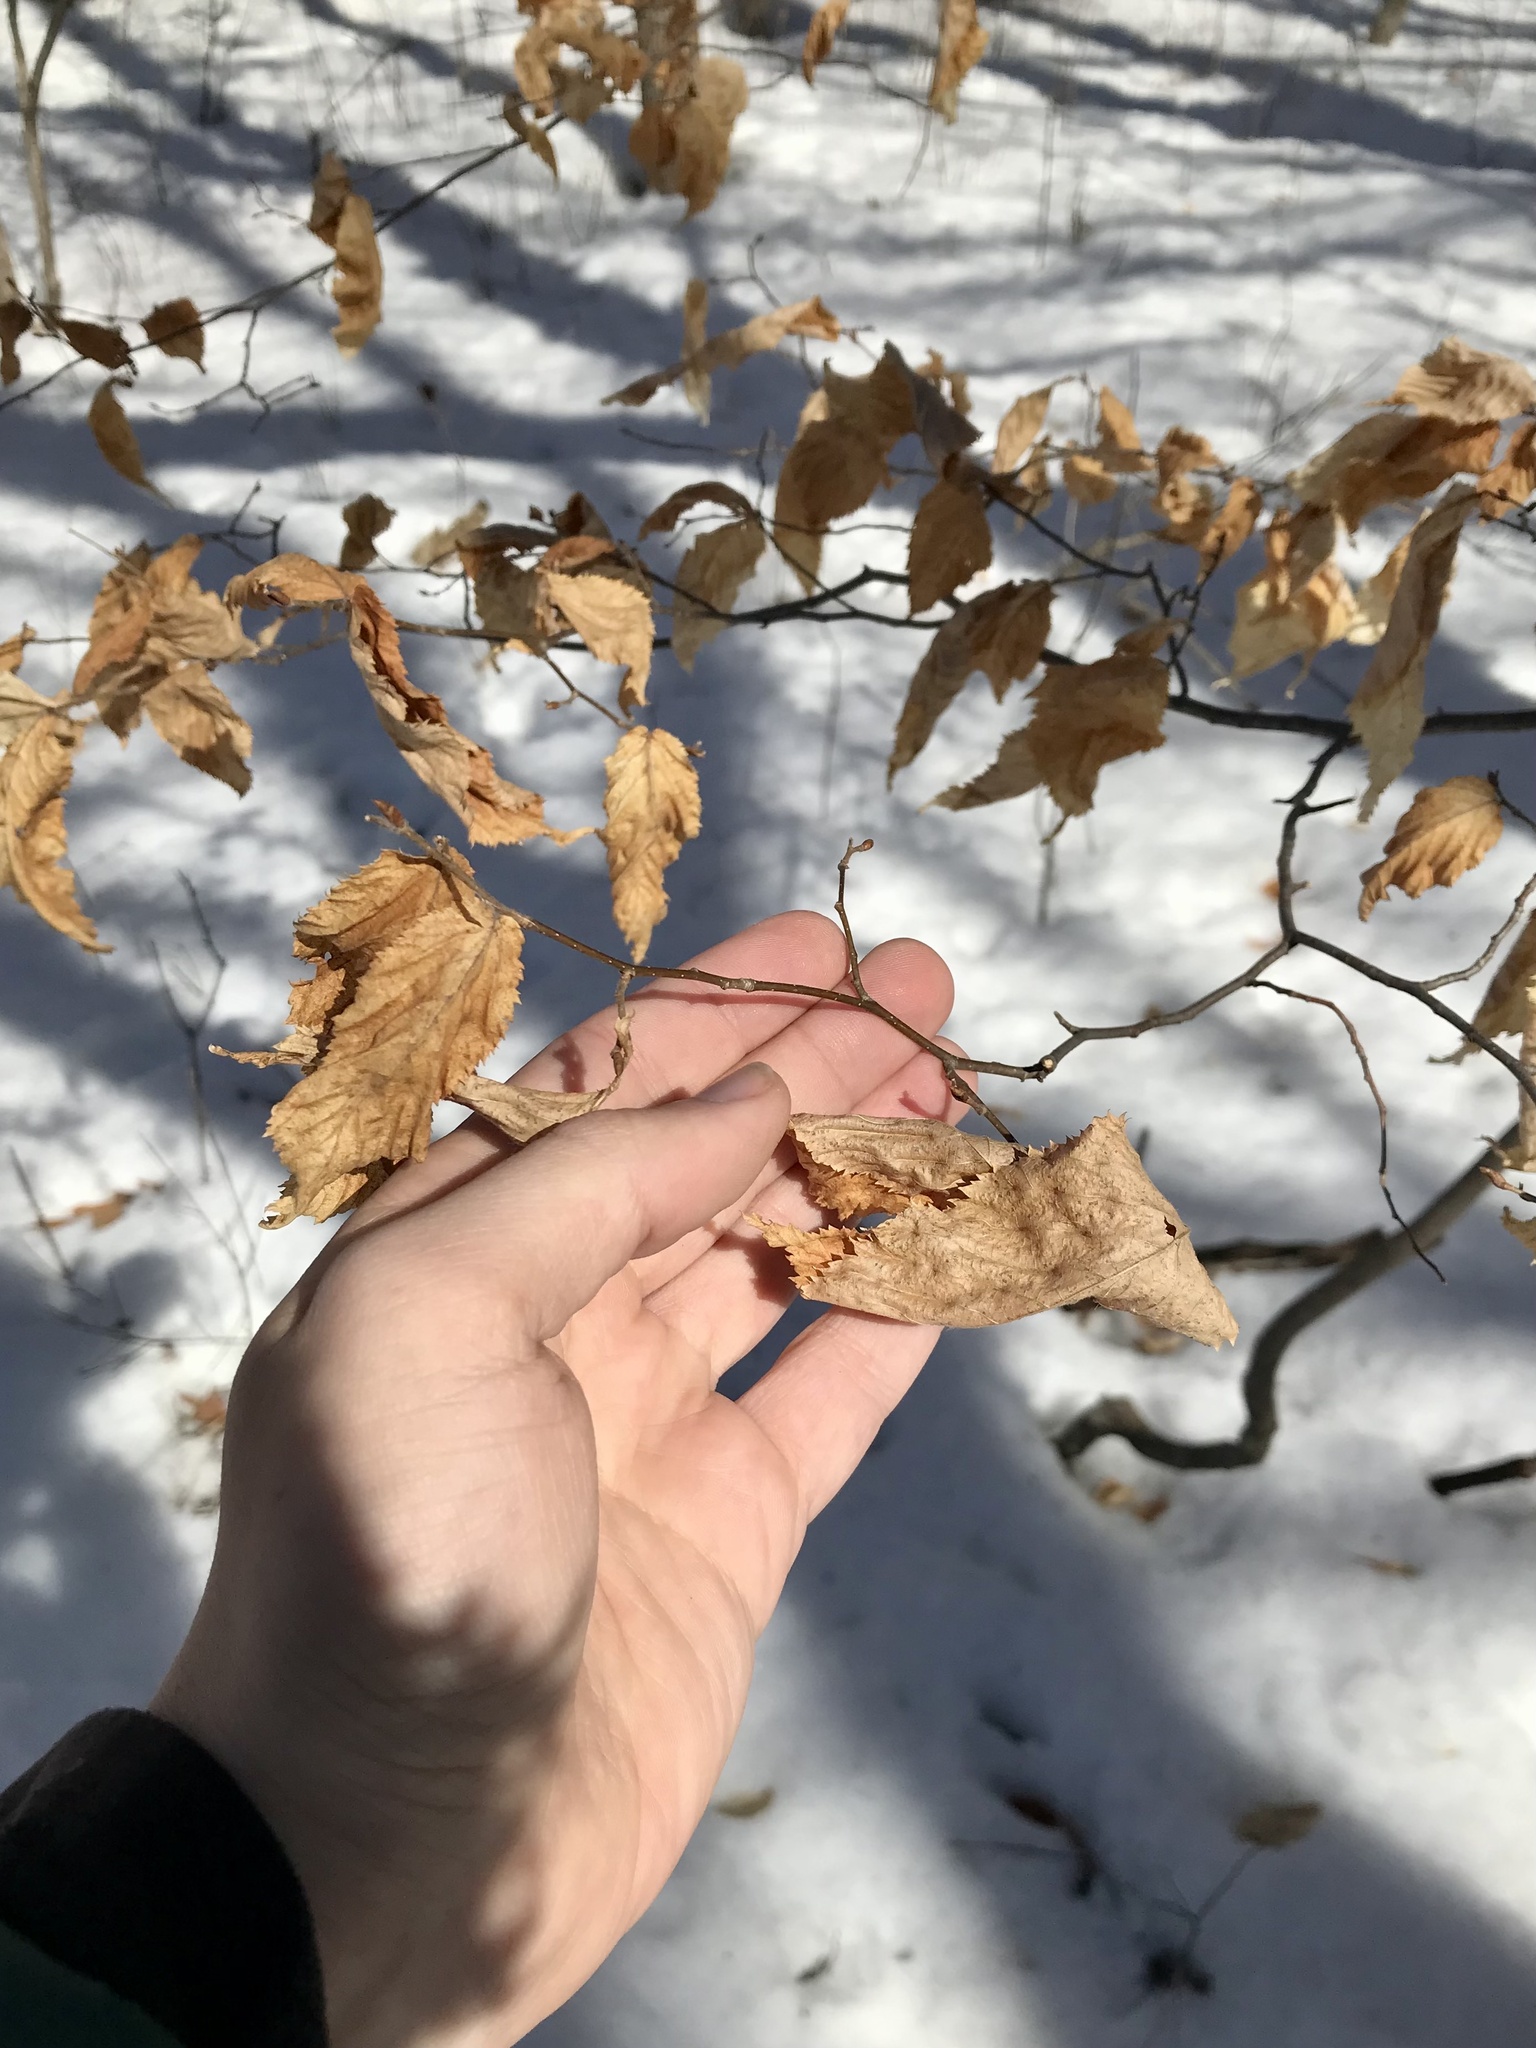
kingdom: Plantae
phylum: Tracheophyta
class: Magnoliopsida
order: Fagales
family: Betulaceae
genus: Ostrya
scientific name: Ostrya virginiana
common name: Ironwood
